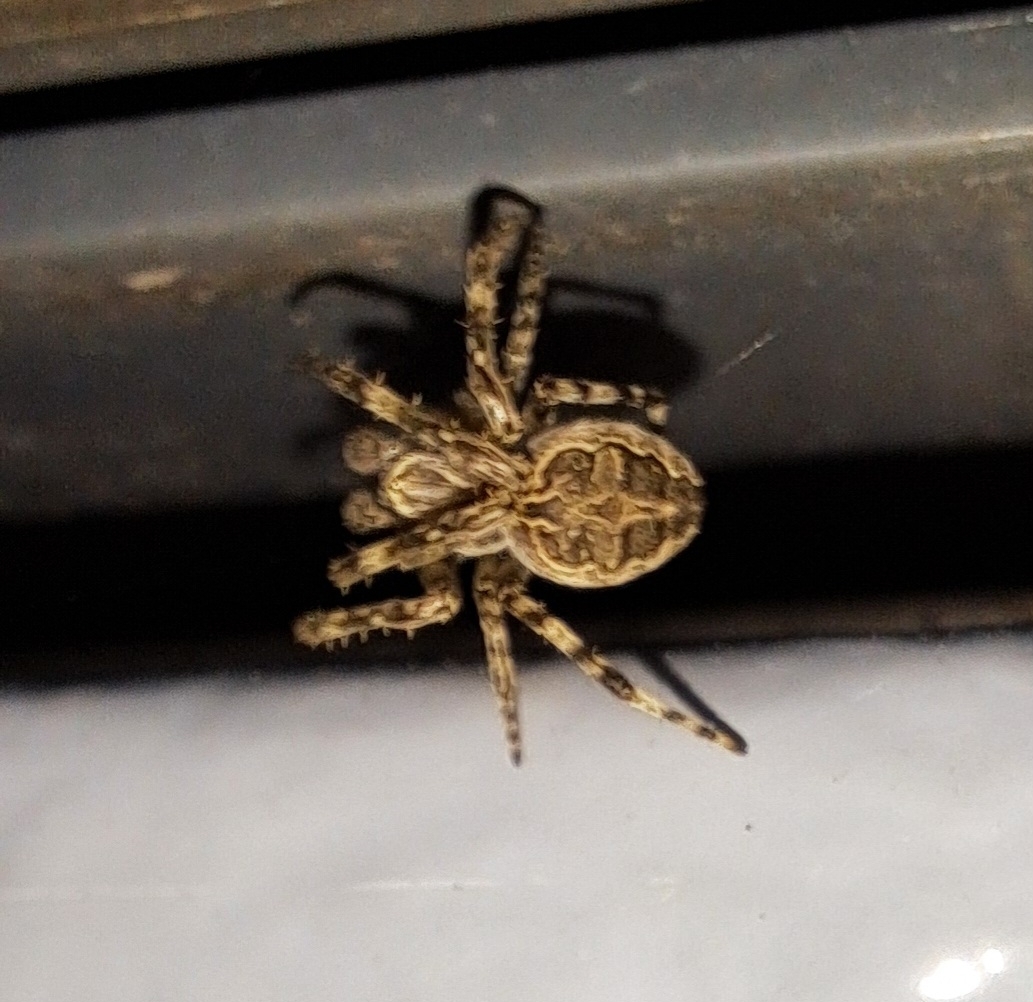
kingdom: Animalia
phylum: Arthropoda
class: Arachnida
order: Araneae
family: Araneidae
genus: Larinioides
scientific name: Larinioides sclopetarius
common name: Bridge orbweaver
